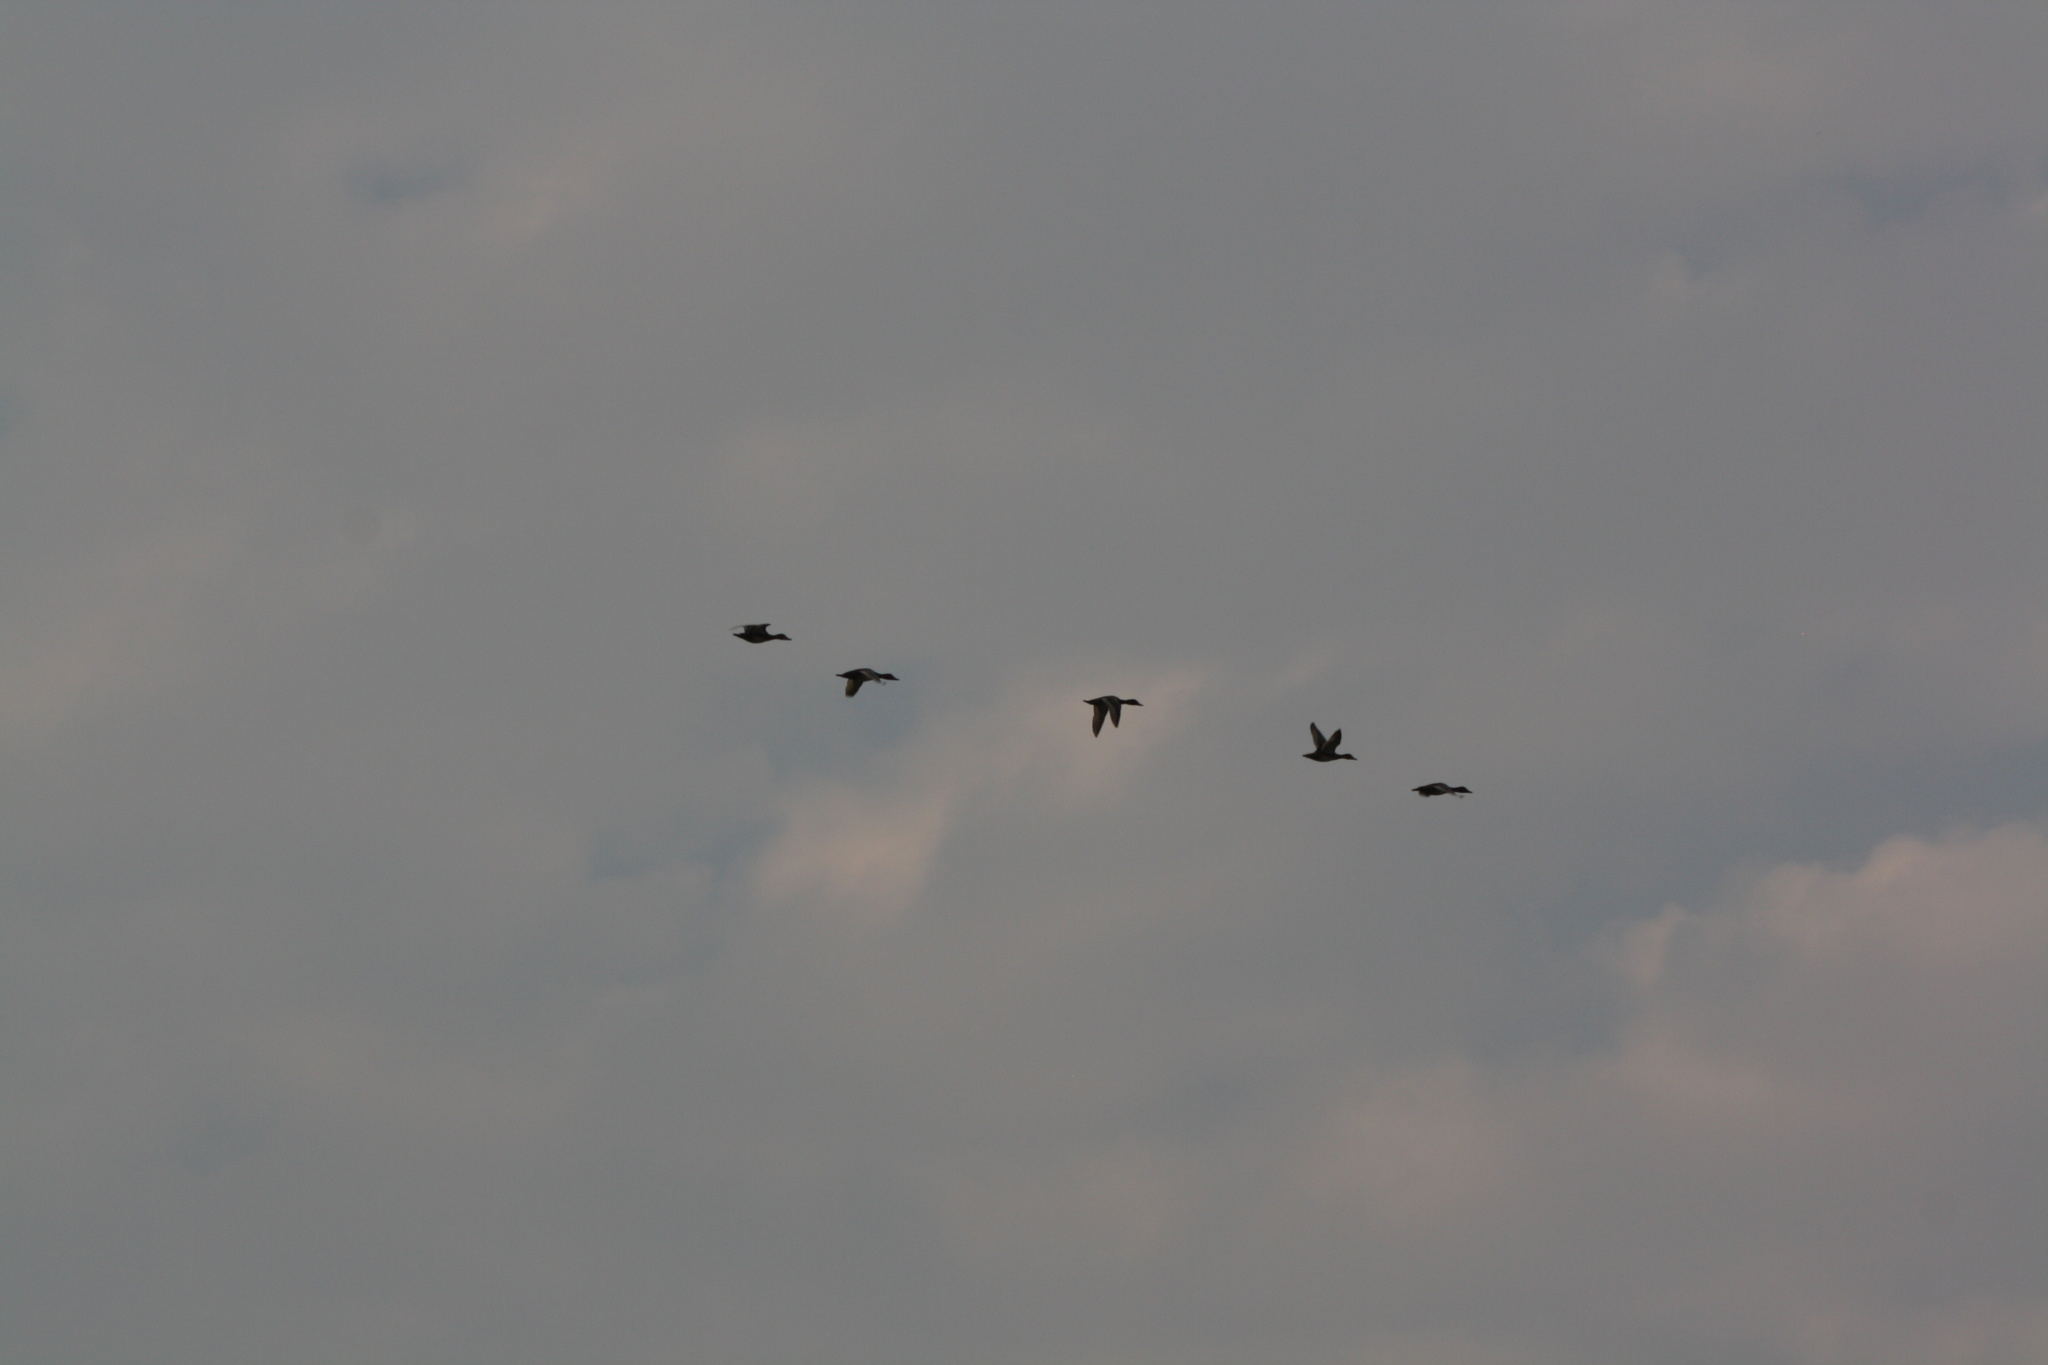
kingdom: Animalia
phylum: Chordata
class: Aves
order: Anseriformes
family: Anatidae
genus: Aythya
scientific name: Aythya americana
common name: Redhead
